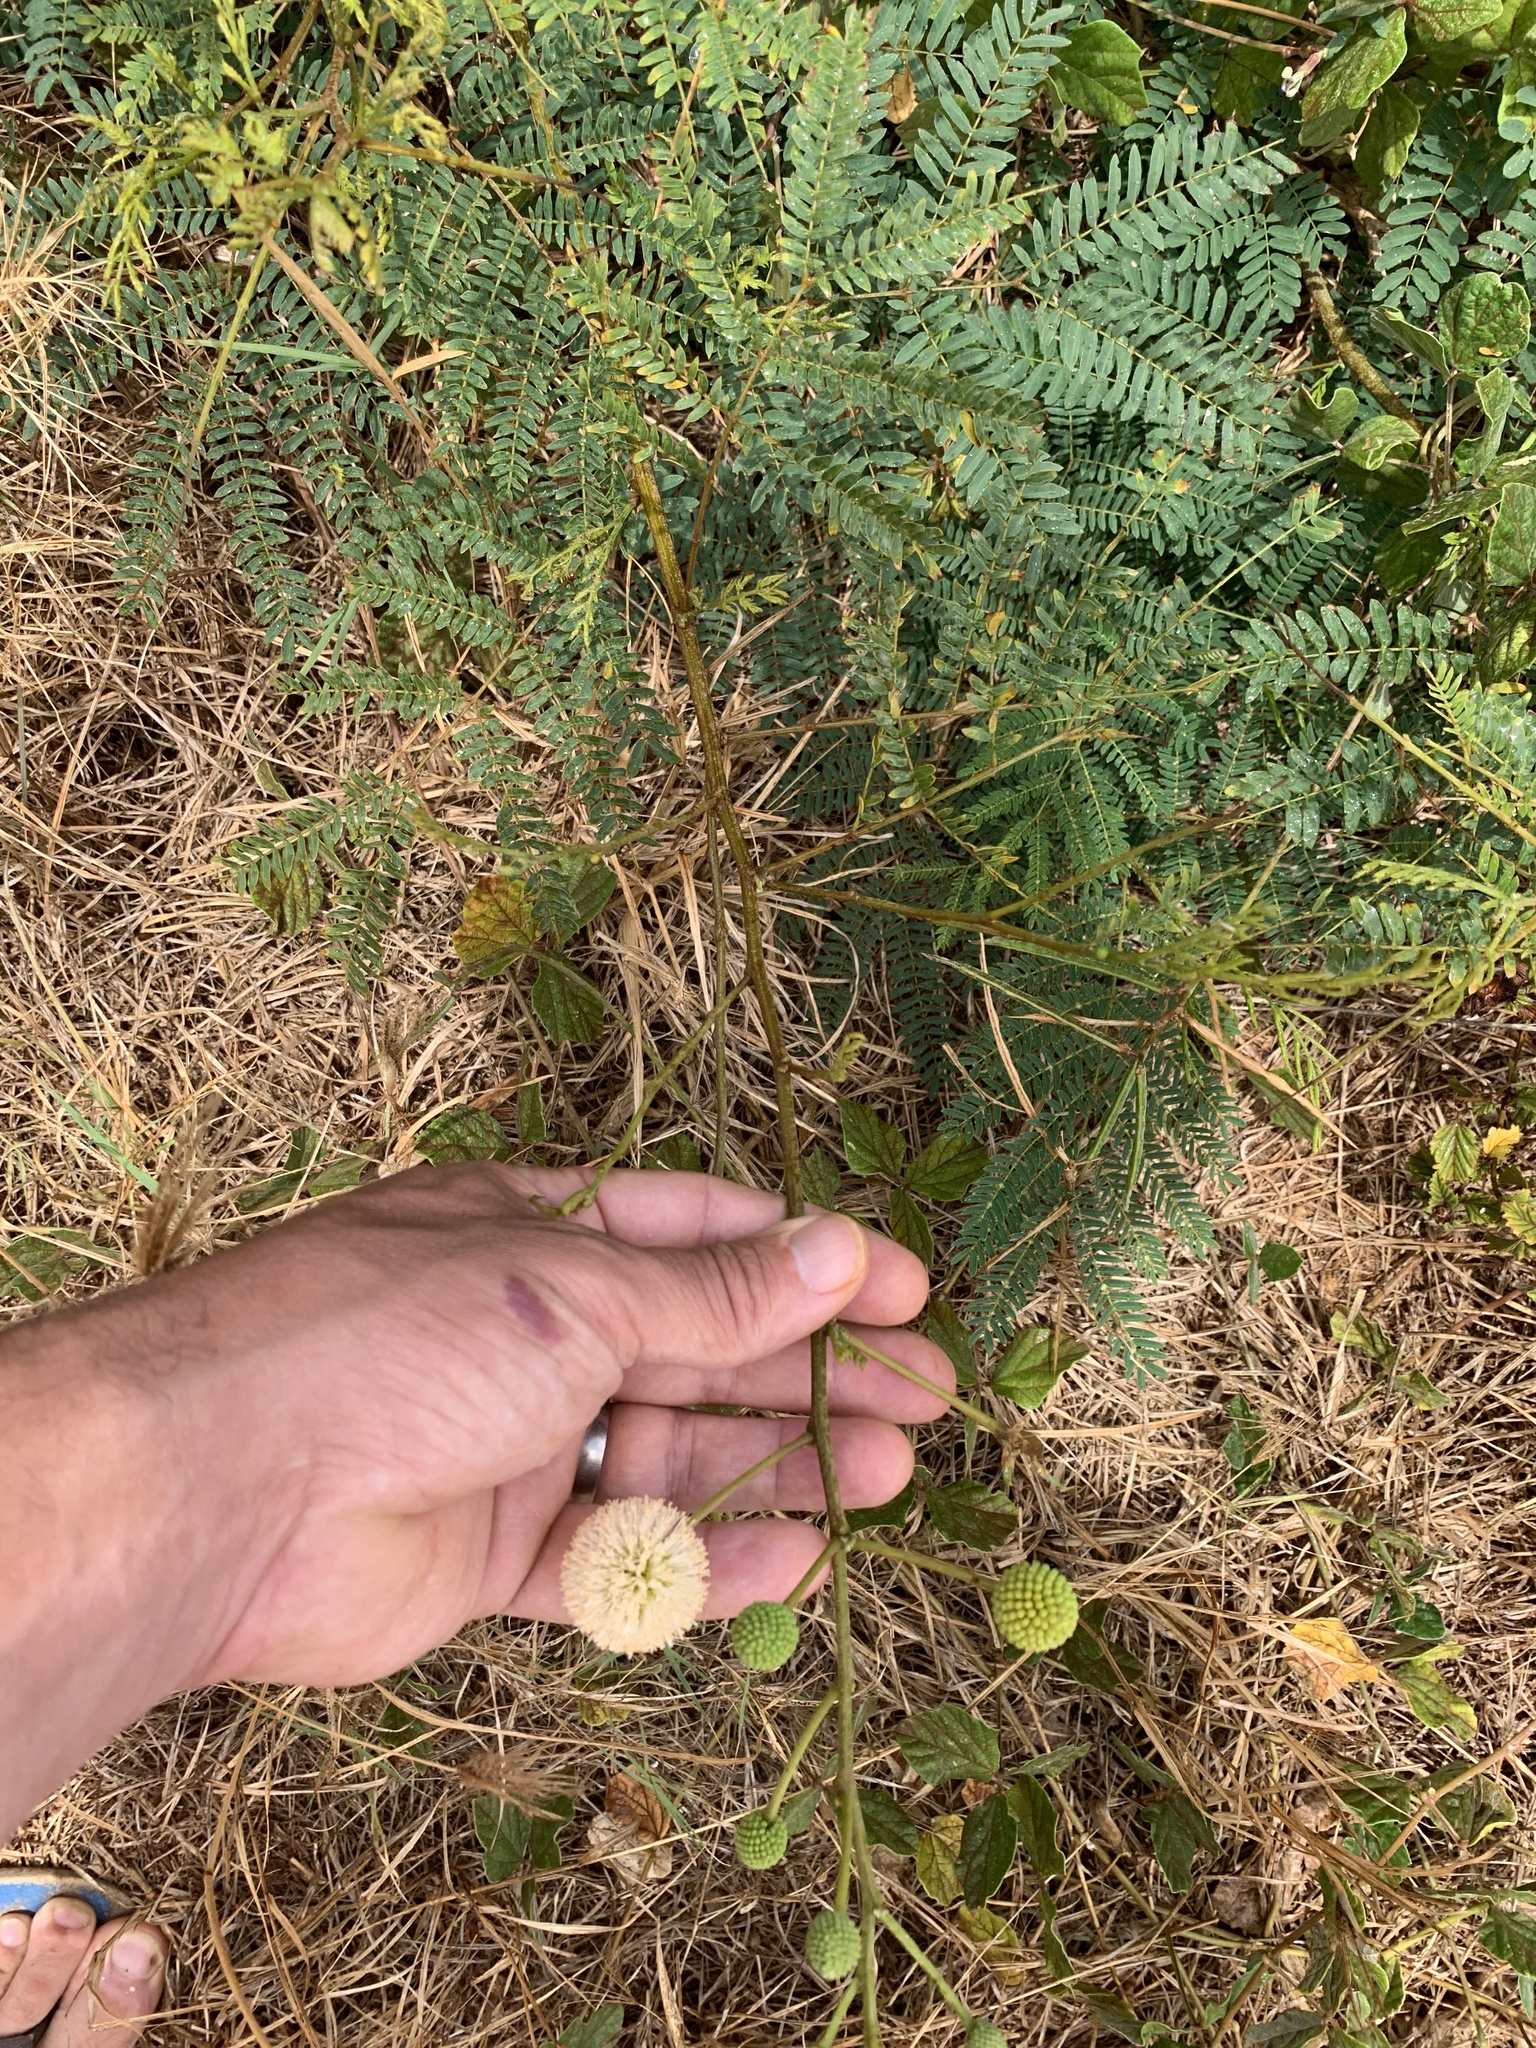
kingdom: Plantae
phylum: Tracheophyta
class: Magnoliopsida
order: Fabales
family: Fabaceae
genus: Leucaena
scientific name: Leucaena leucocephala
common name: White leadtree
